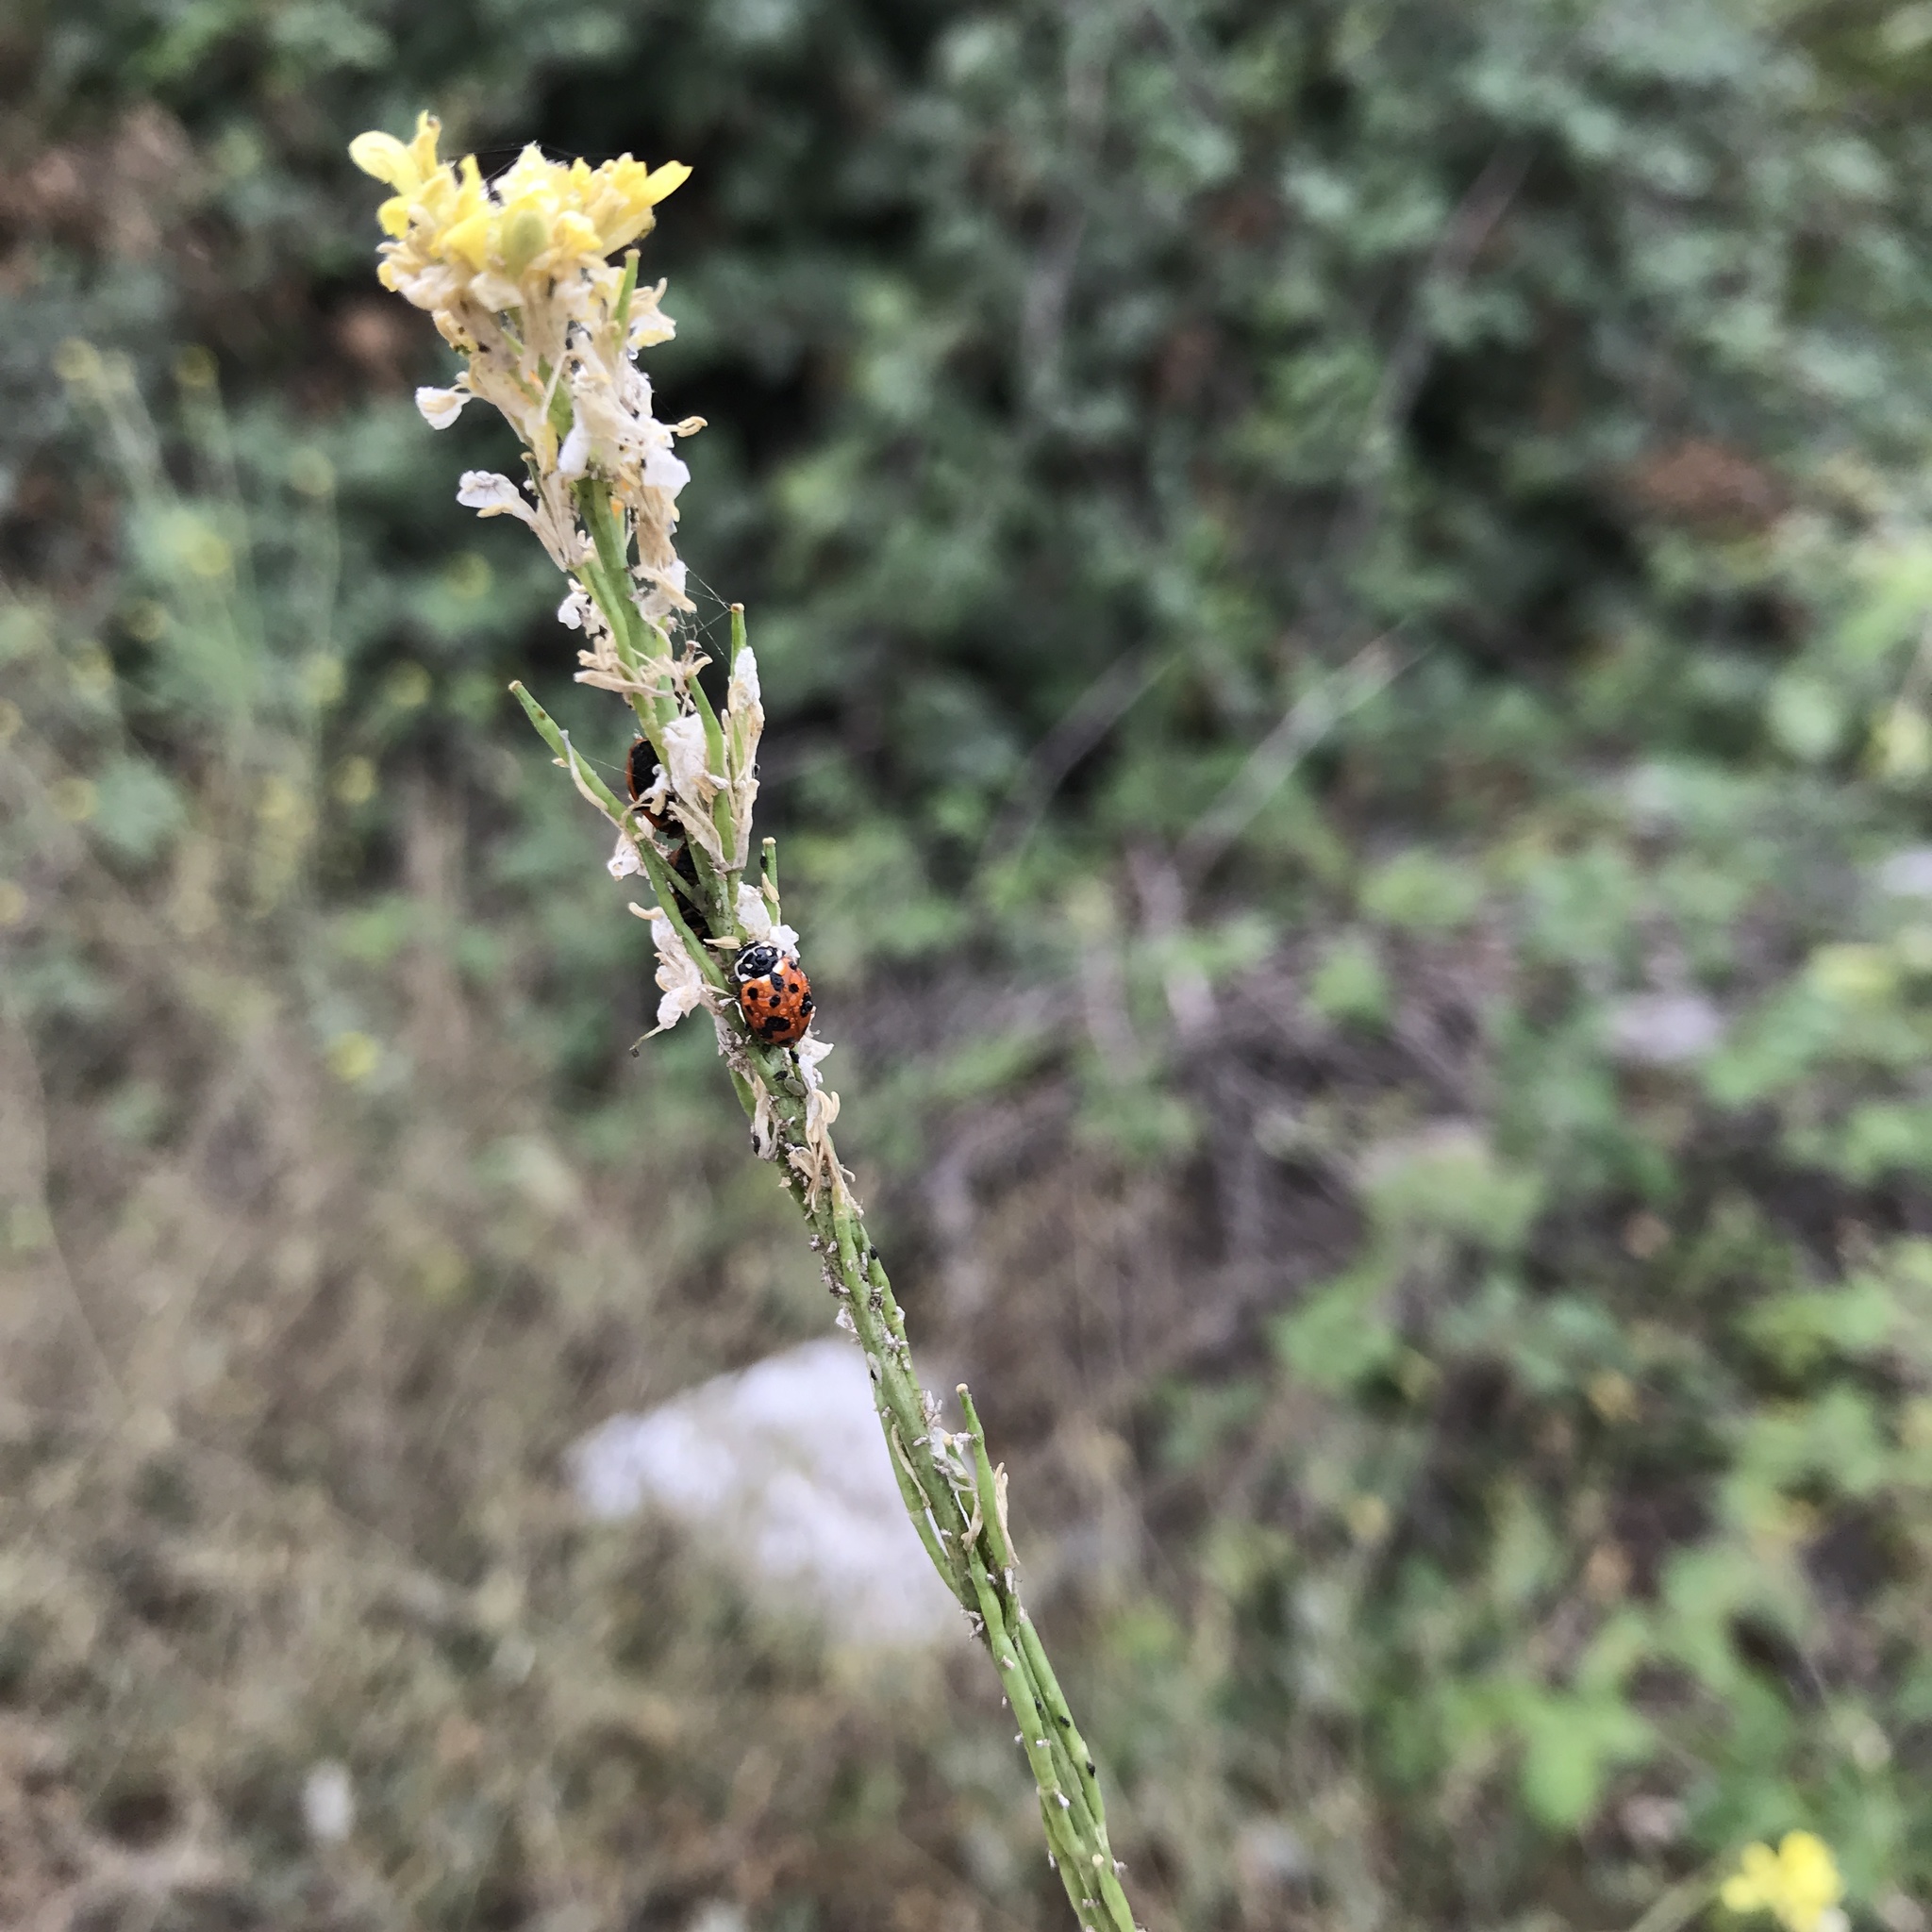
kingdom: Animalia
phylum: Arthropoda
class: Insecta
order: Coleoptera
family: Coccinellidae
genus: Hippodamia
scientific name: Hippodamia variegata
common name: Ladybird beetle
